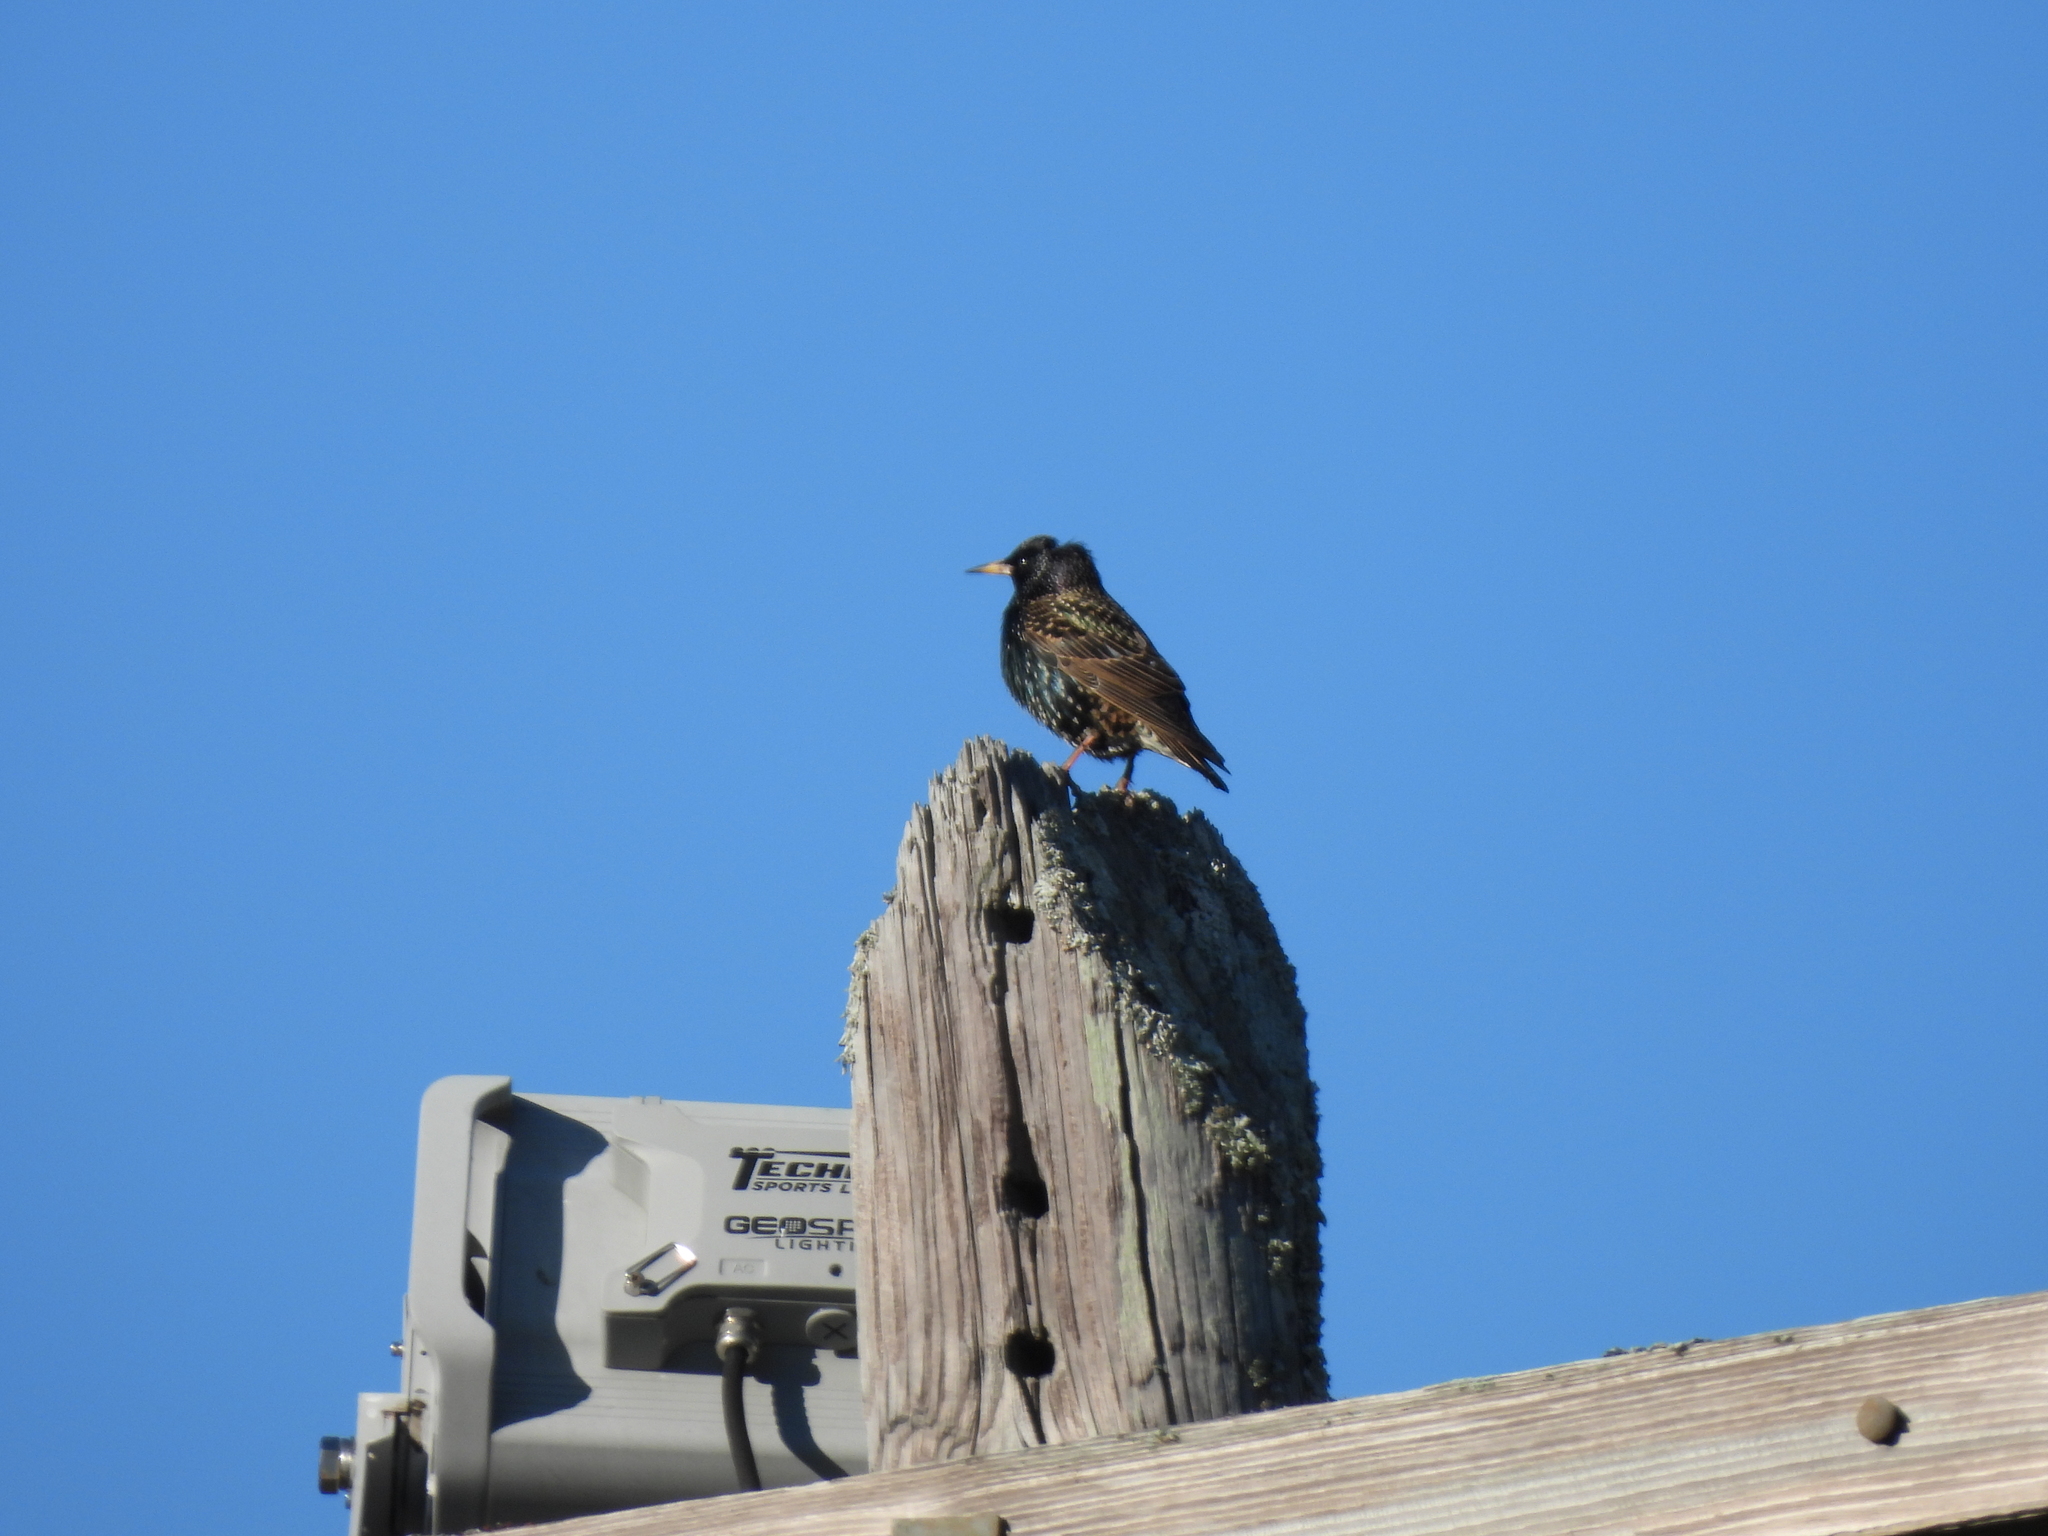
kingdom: Animalia
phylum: Chordata
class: Aves
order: Passeriformes
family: Sturnidae
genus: Sturnus
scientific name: Sturnus vulgaris
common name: Common starling
